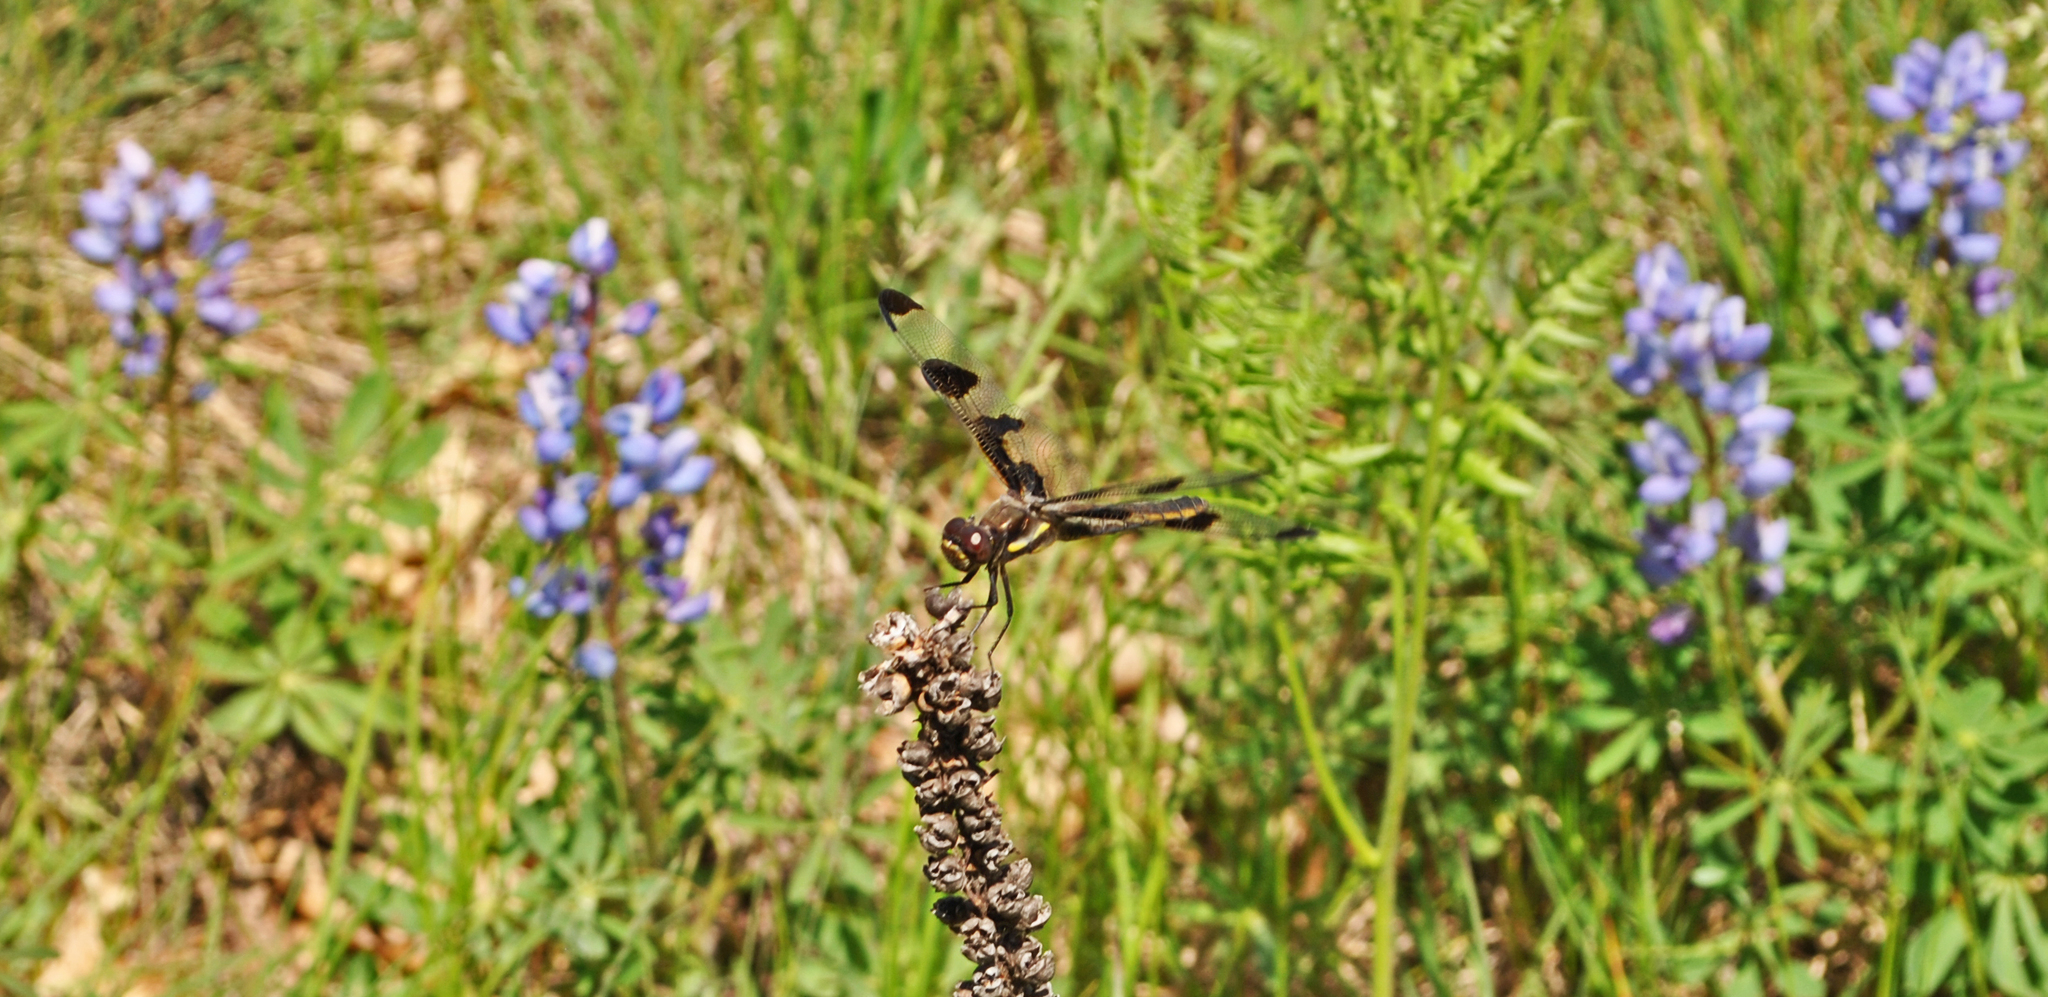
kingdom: Animalia
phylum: Arthropoda
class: Insecta
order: Odonata
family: Libellulidae
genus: Libellula
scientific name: Libellula pulchella
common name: Twelve-spotted skimmer
